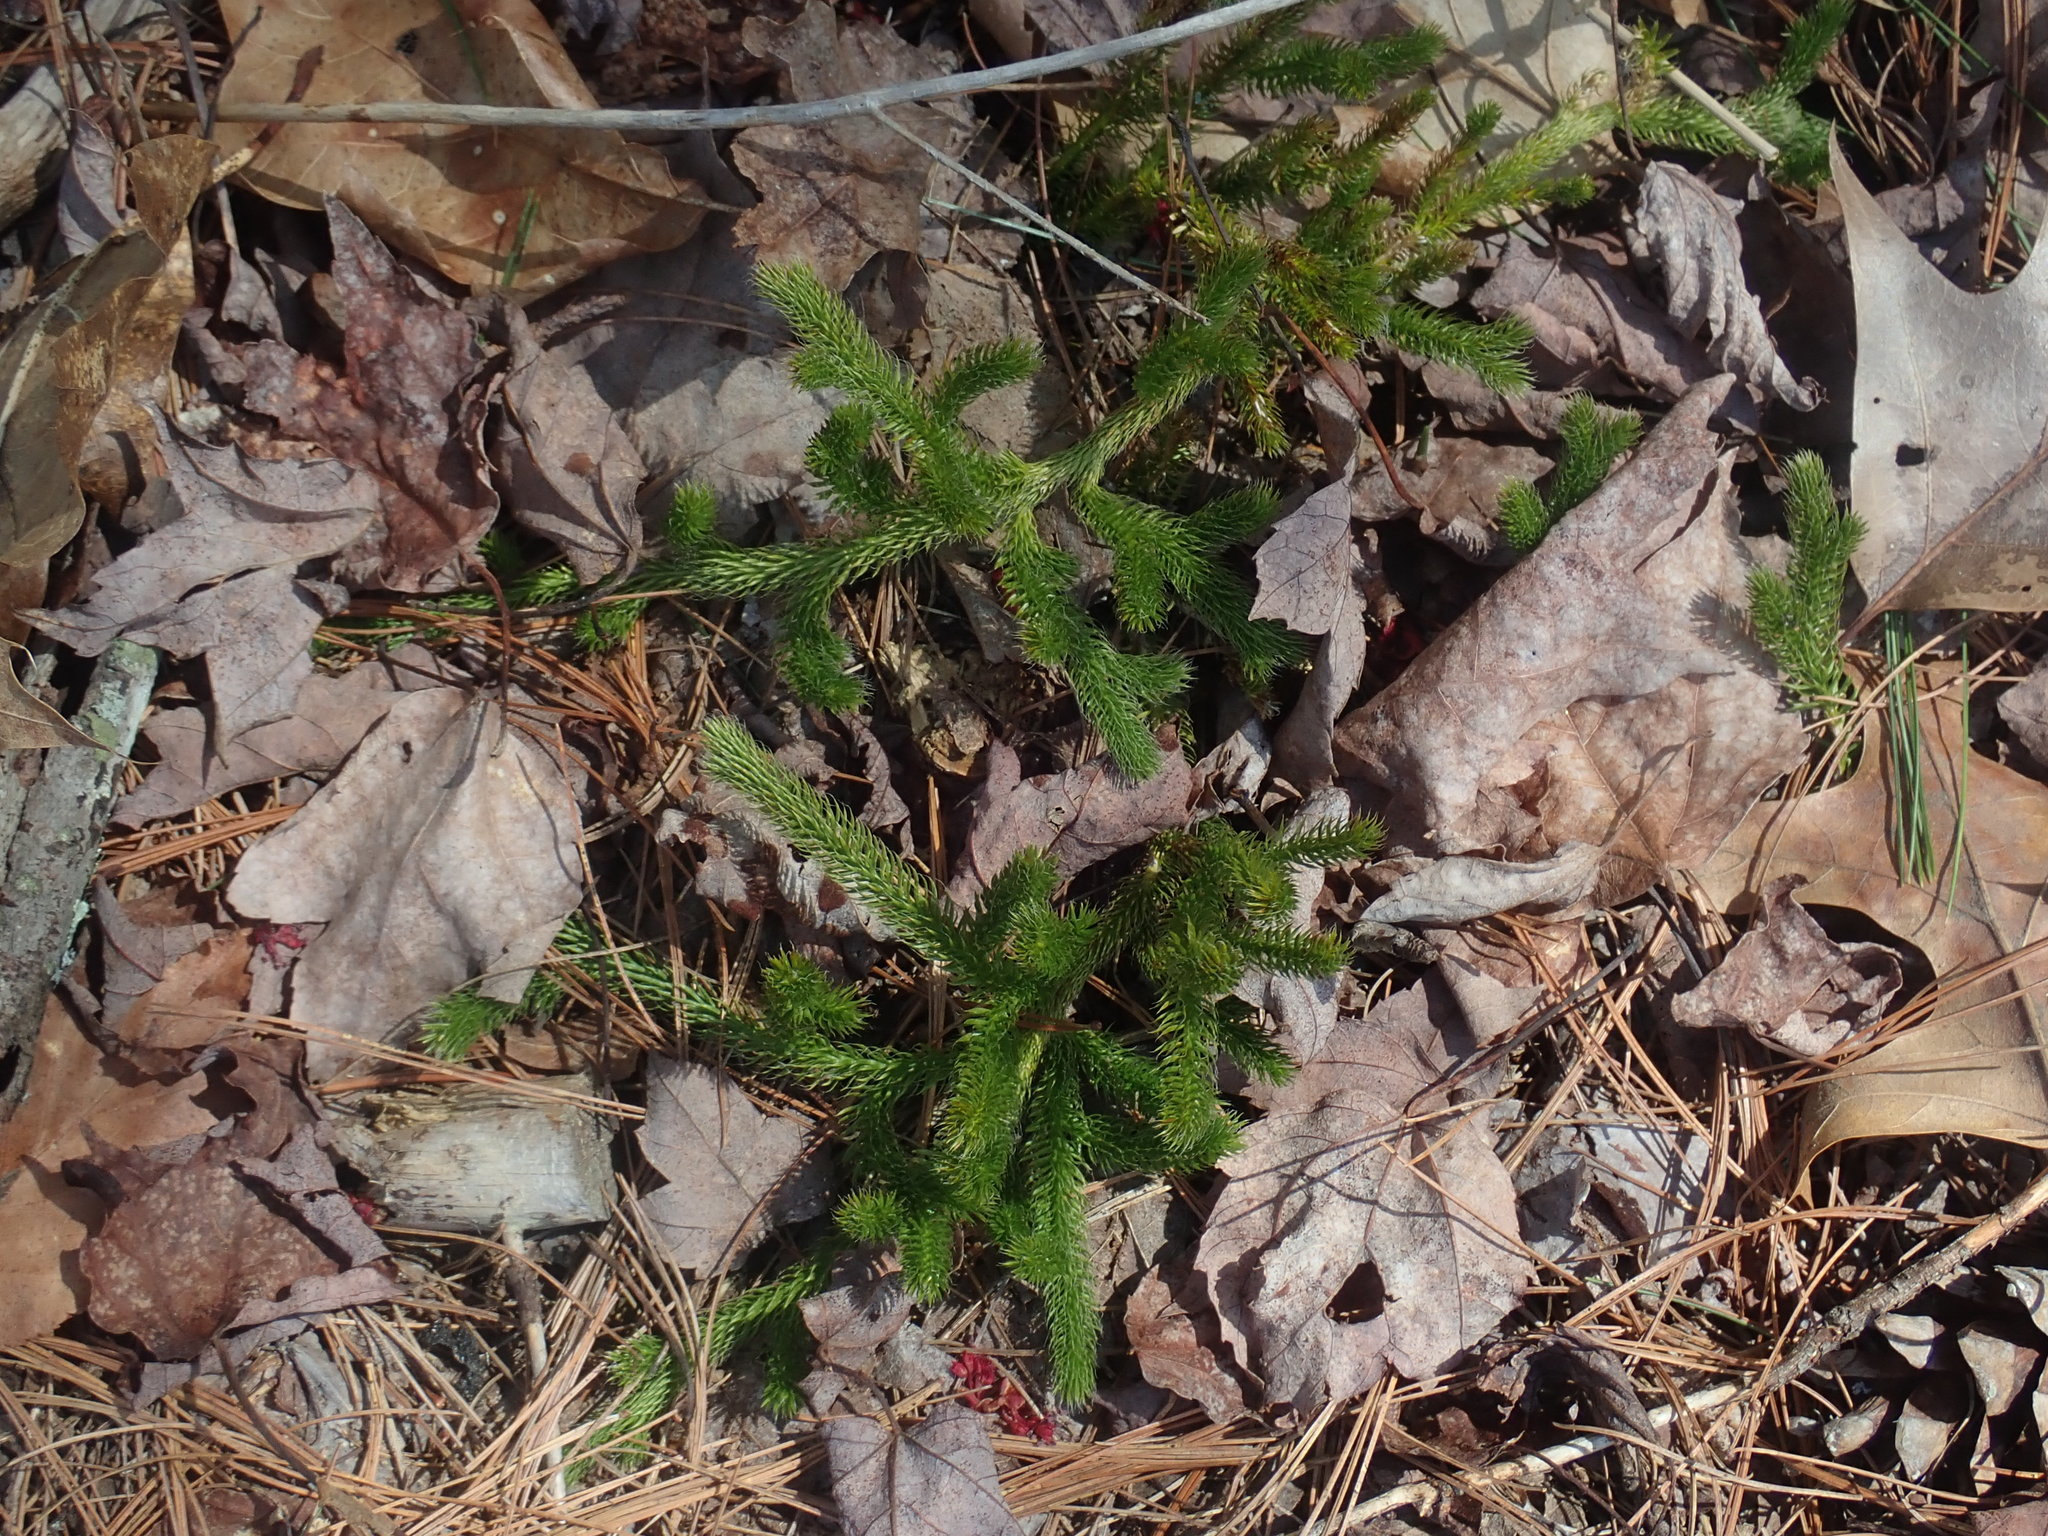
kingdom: Plantae
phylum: Tracheophyta
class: Lycopodiopsida
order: Lycopodiales
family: Lycopodiaceae
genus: Lycopodium
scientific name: Lycopodium clavatum
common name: Stag's-horn clubmoss
